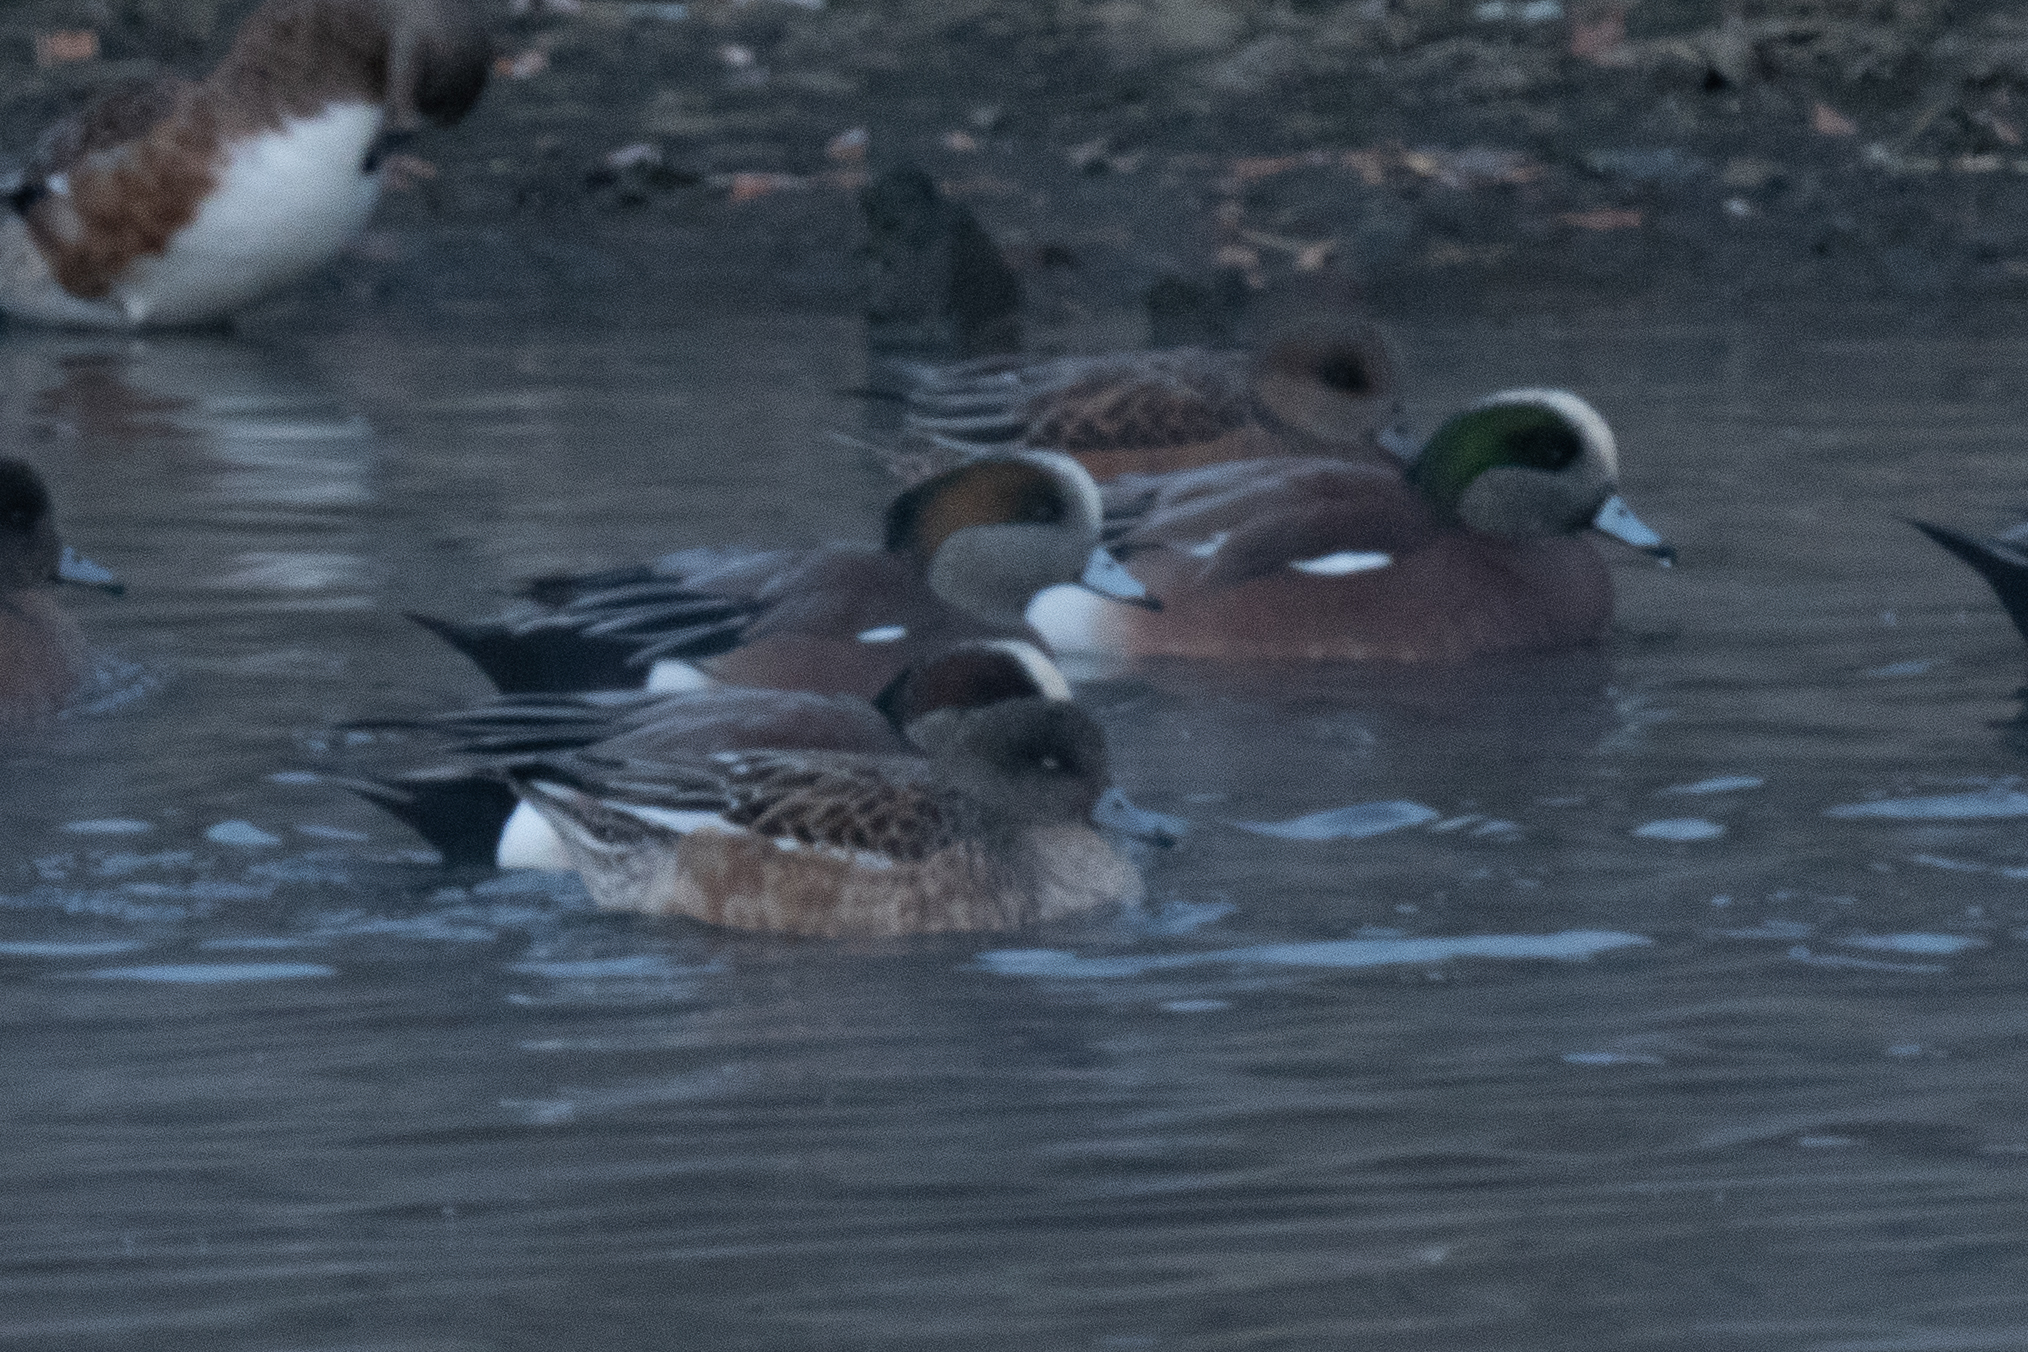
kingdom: Animalia
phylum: Chordata
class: Aves
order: Anseriformes
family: Anatidae
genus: Mareca
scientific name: Mareca americana
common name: American wigeon
